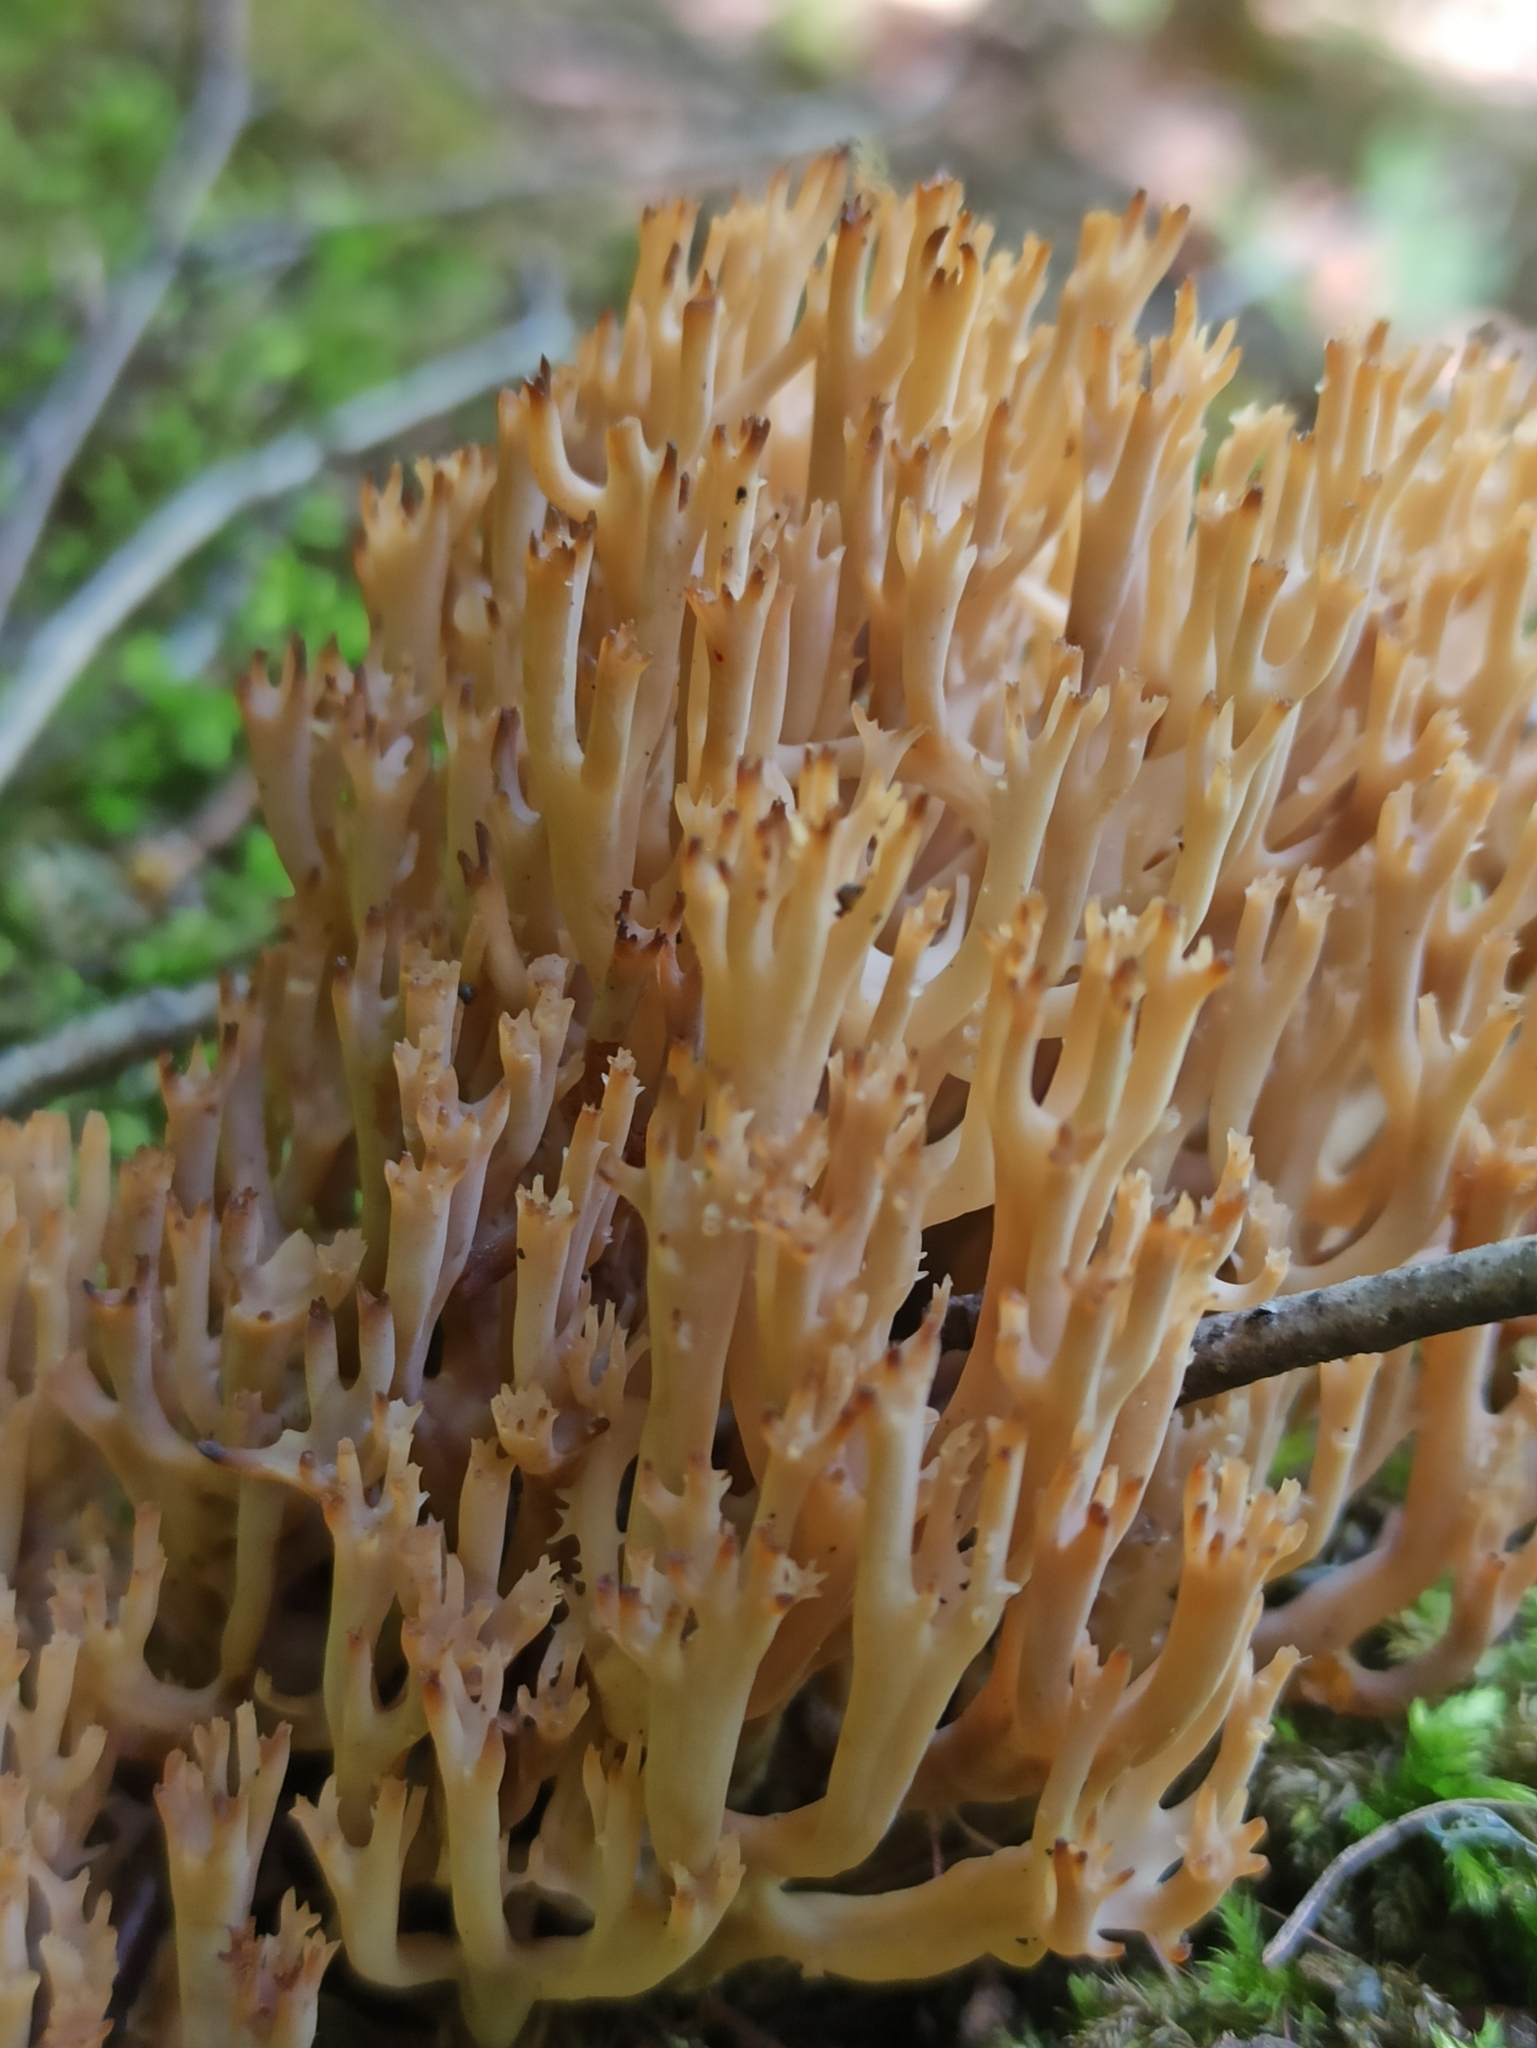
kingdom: Fungi
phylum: Basidiomycota
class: Agaricomycetes
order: Russulales
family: Auriscalpiaceae
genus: Artomyces
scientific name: Artomyces pyxidatus
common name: Crown-tipped coral fungus
